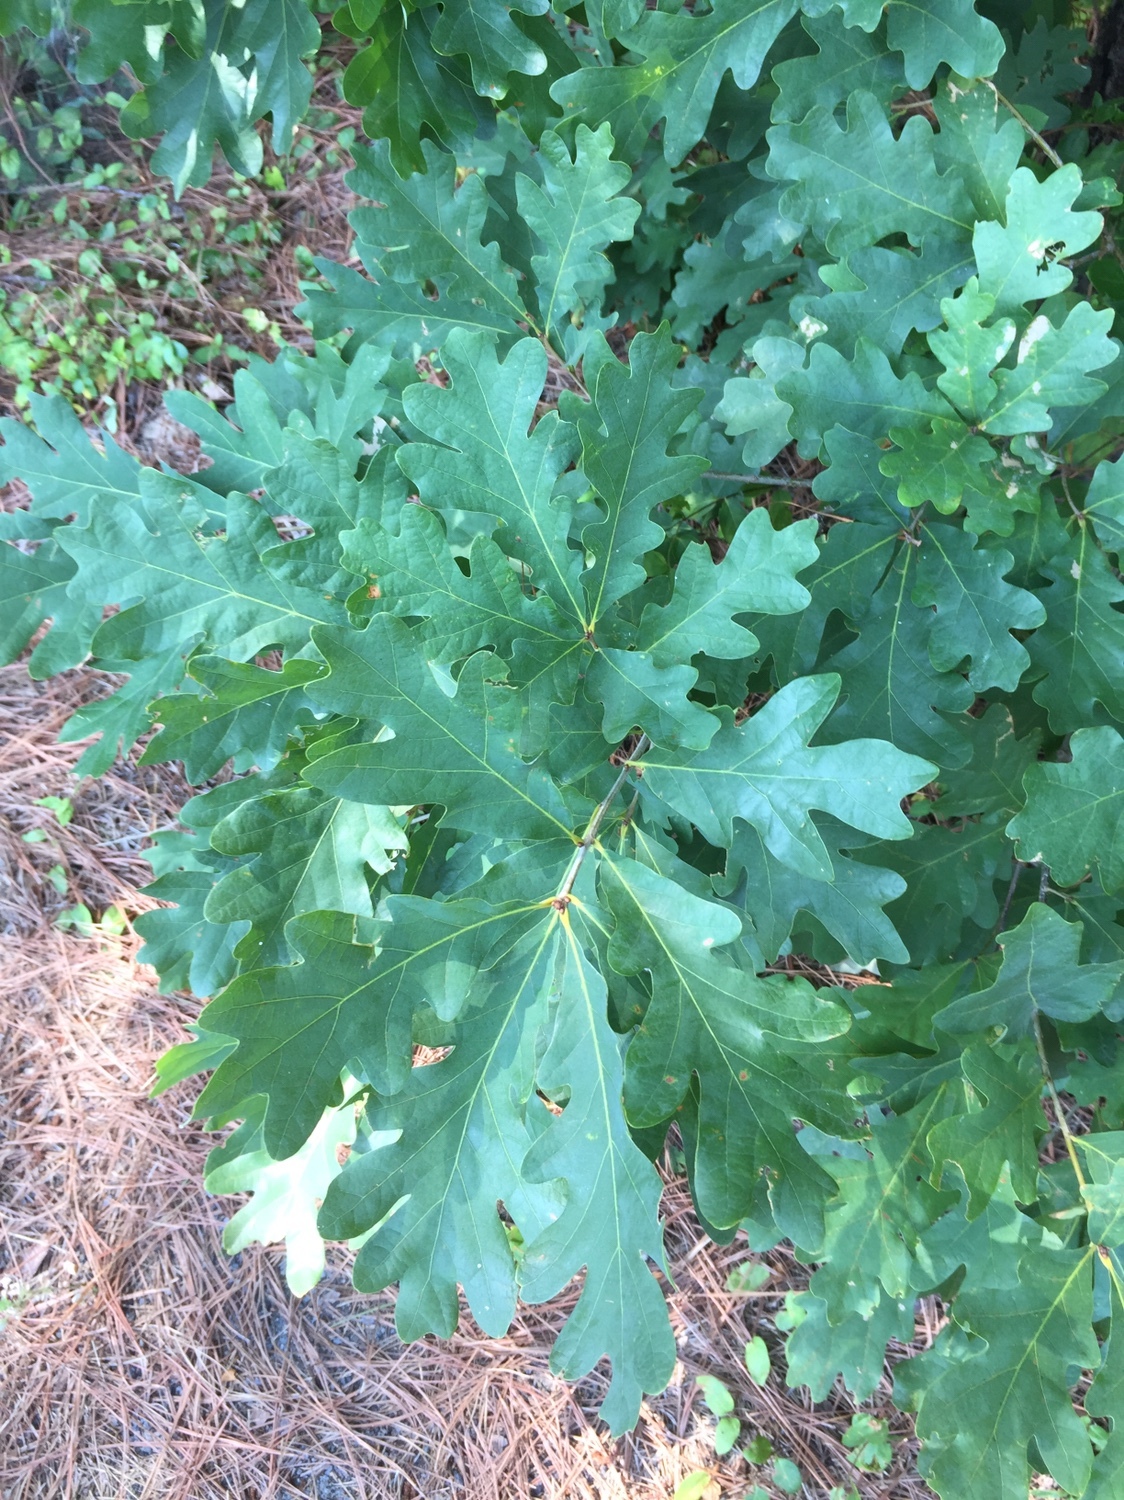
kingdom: Plantae
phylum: Tracheophyta
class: Magnoliopsida
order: Fagales
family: Fagaceae
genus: Quercus
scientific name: Quercus alba
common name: White oak
